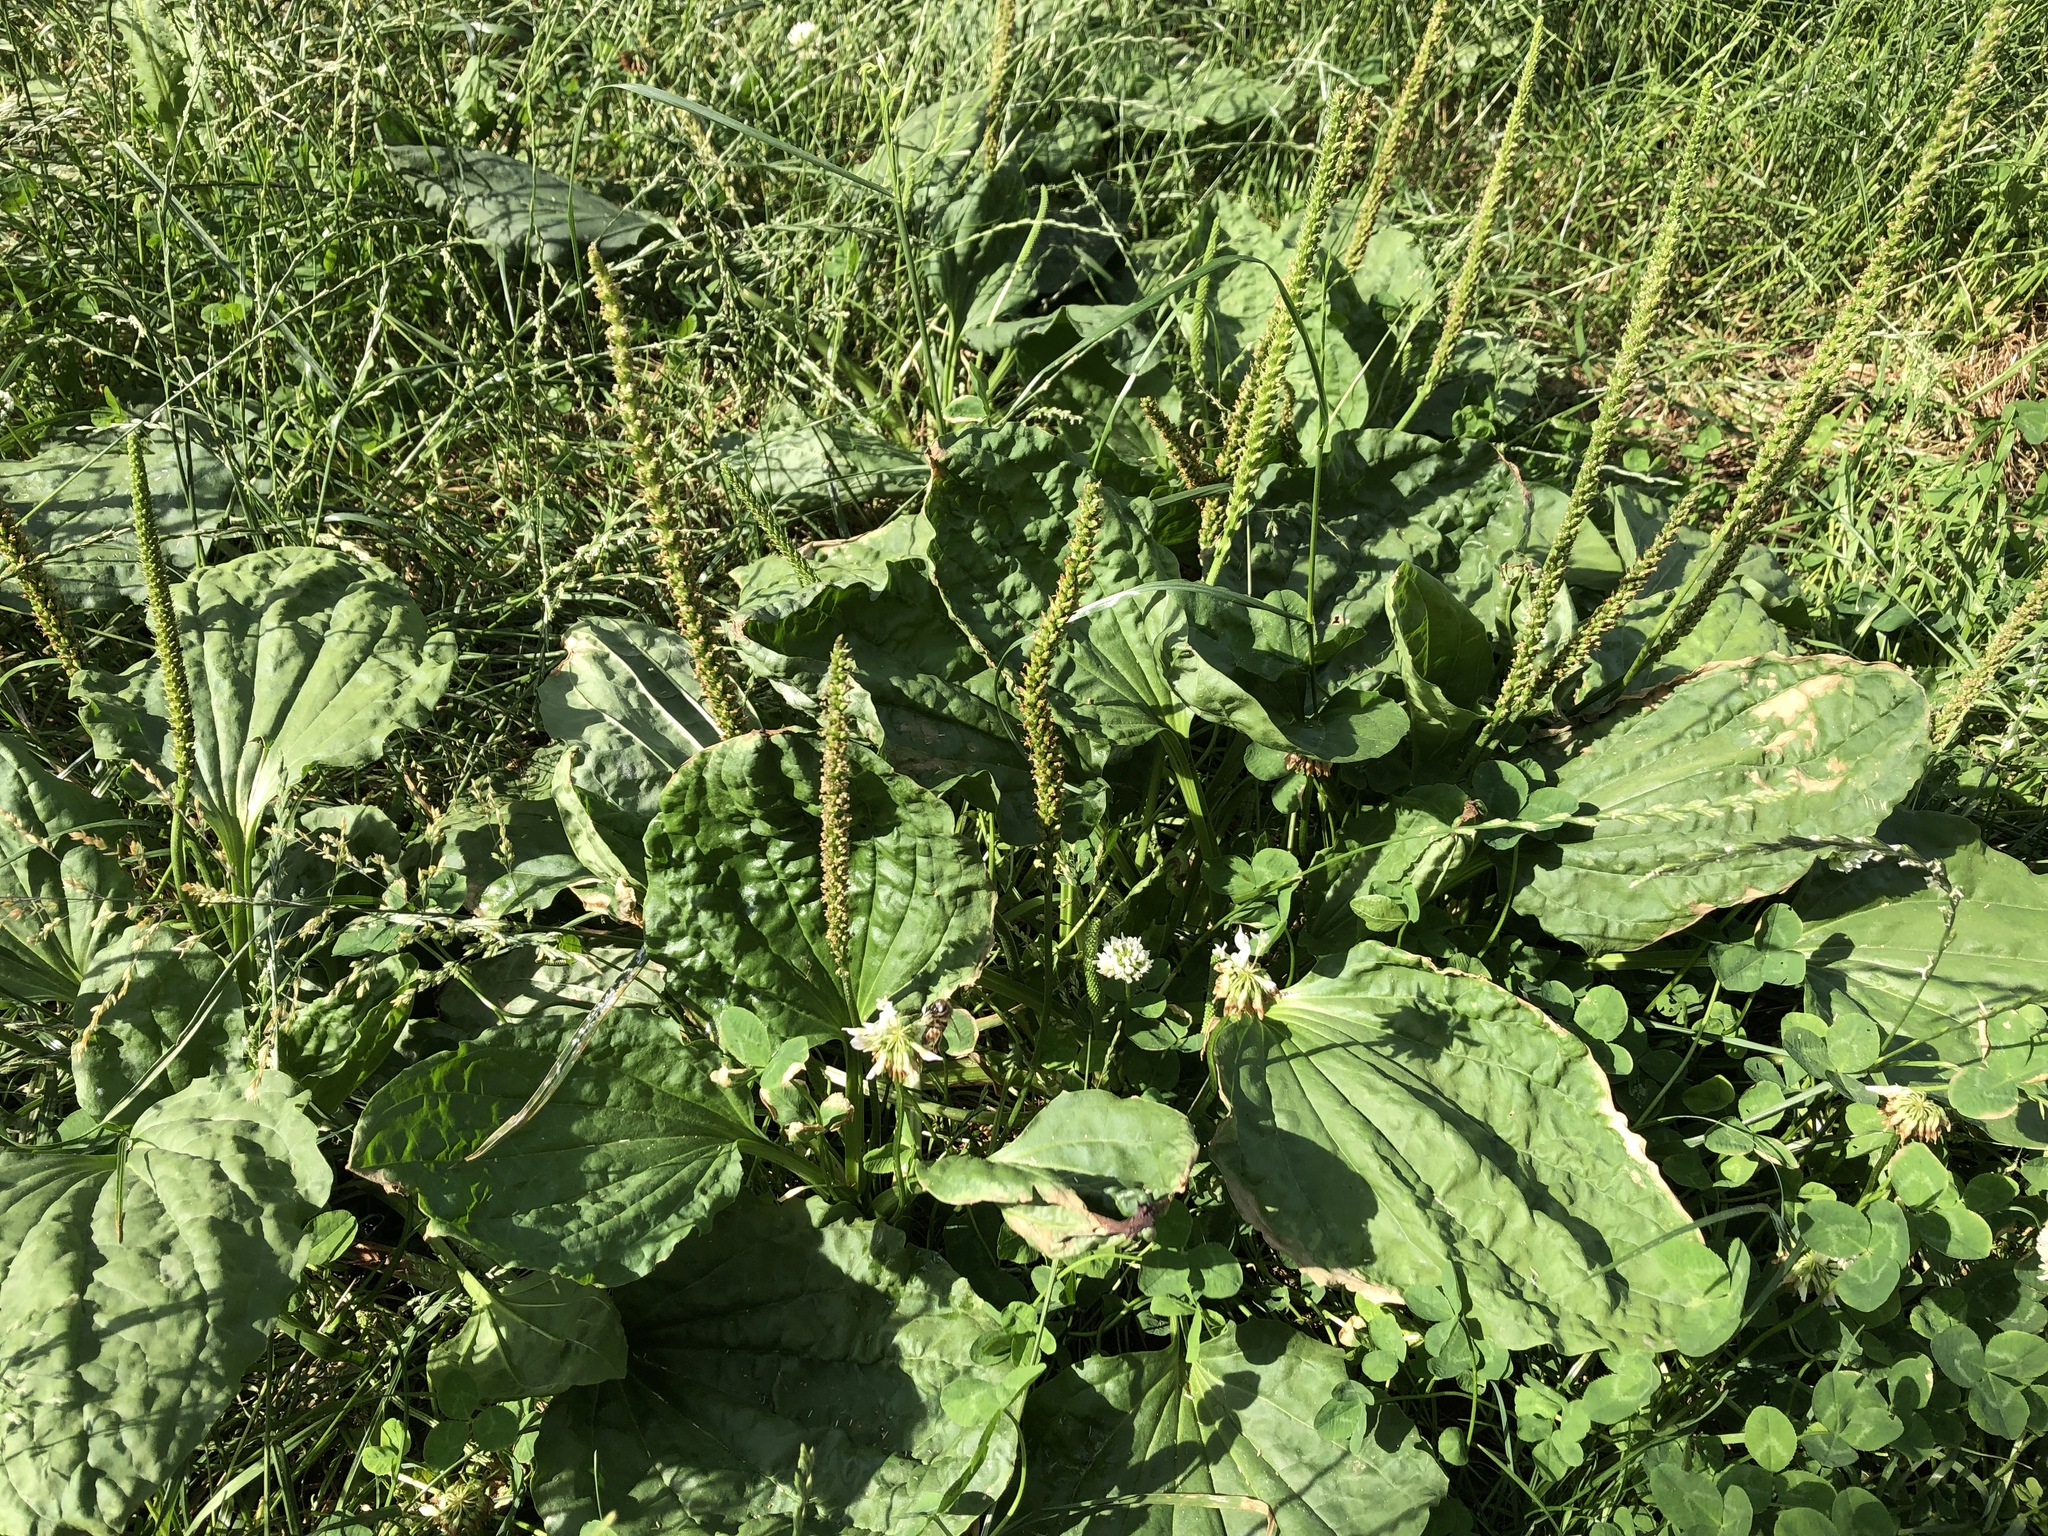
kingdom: Plantae
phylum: Tracheophyta
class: Magnoliopsida
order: Lamiales
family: Plantaginaceae
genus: Plantago
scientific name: Plantago major
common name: Common plantain
